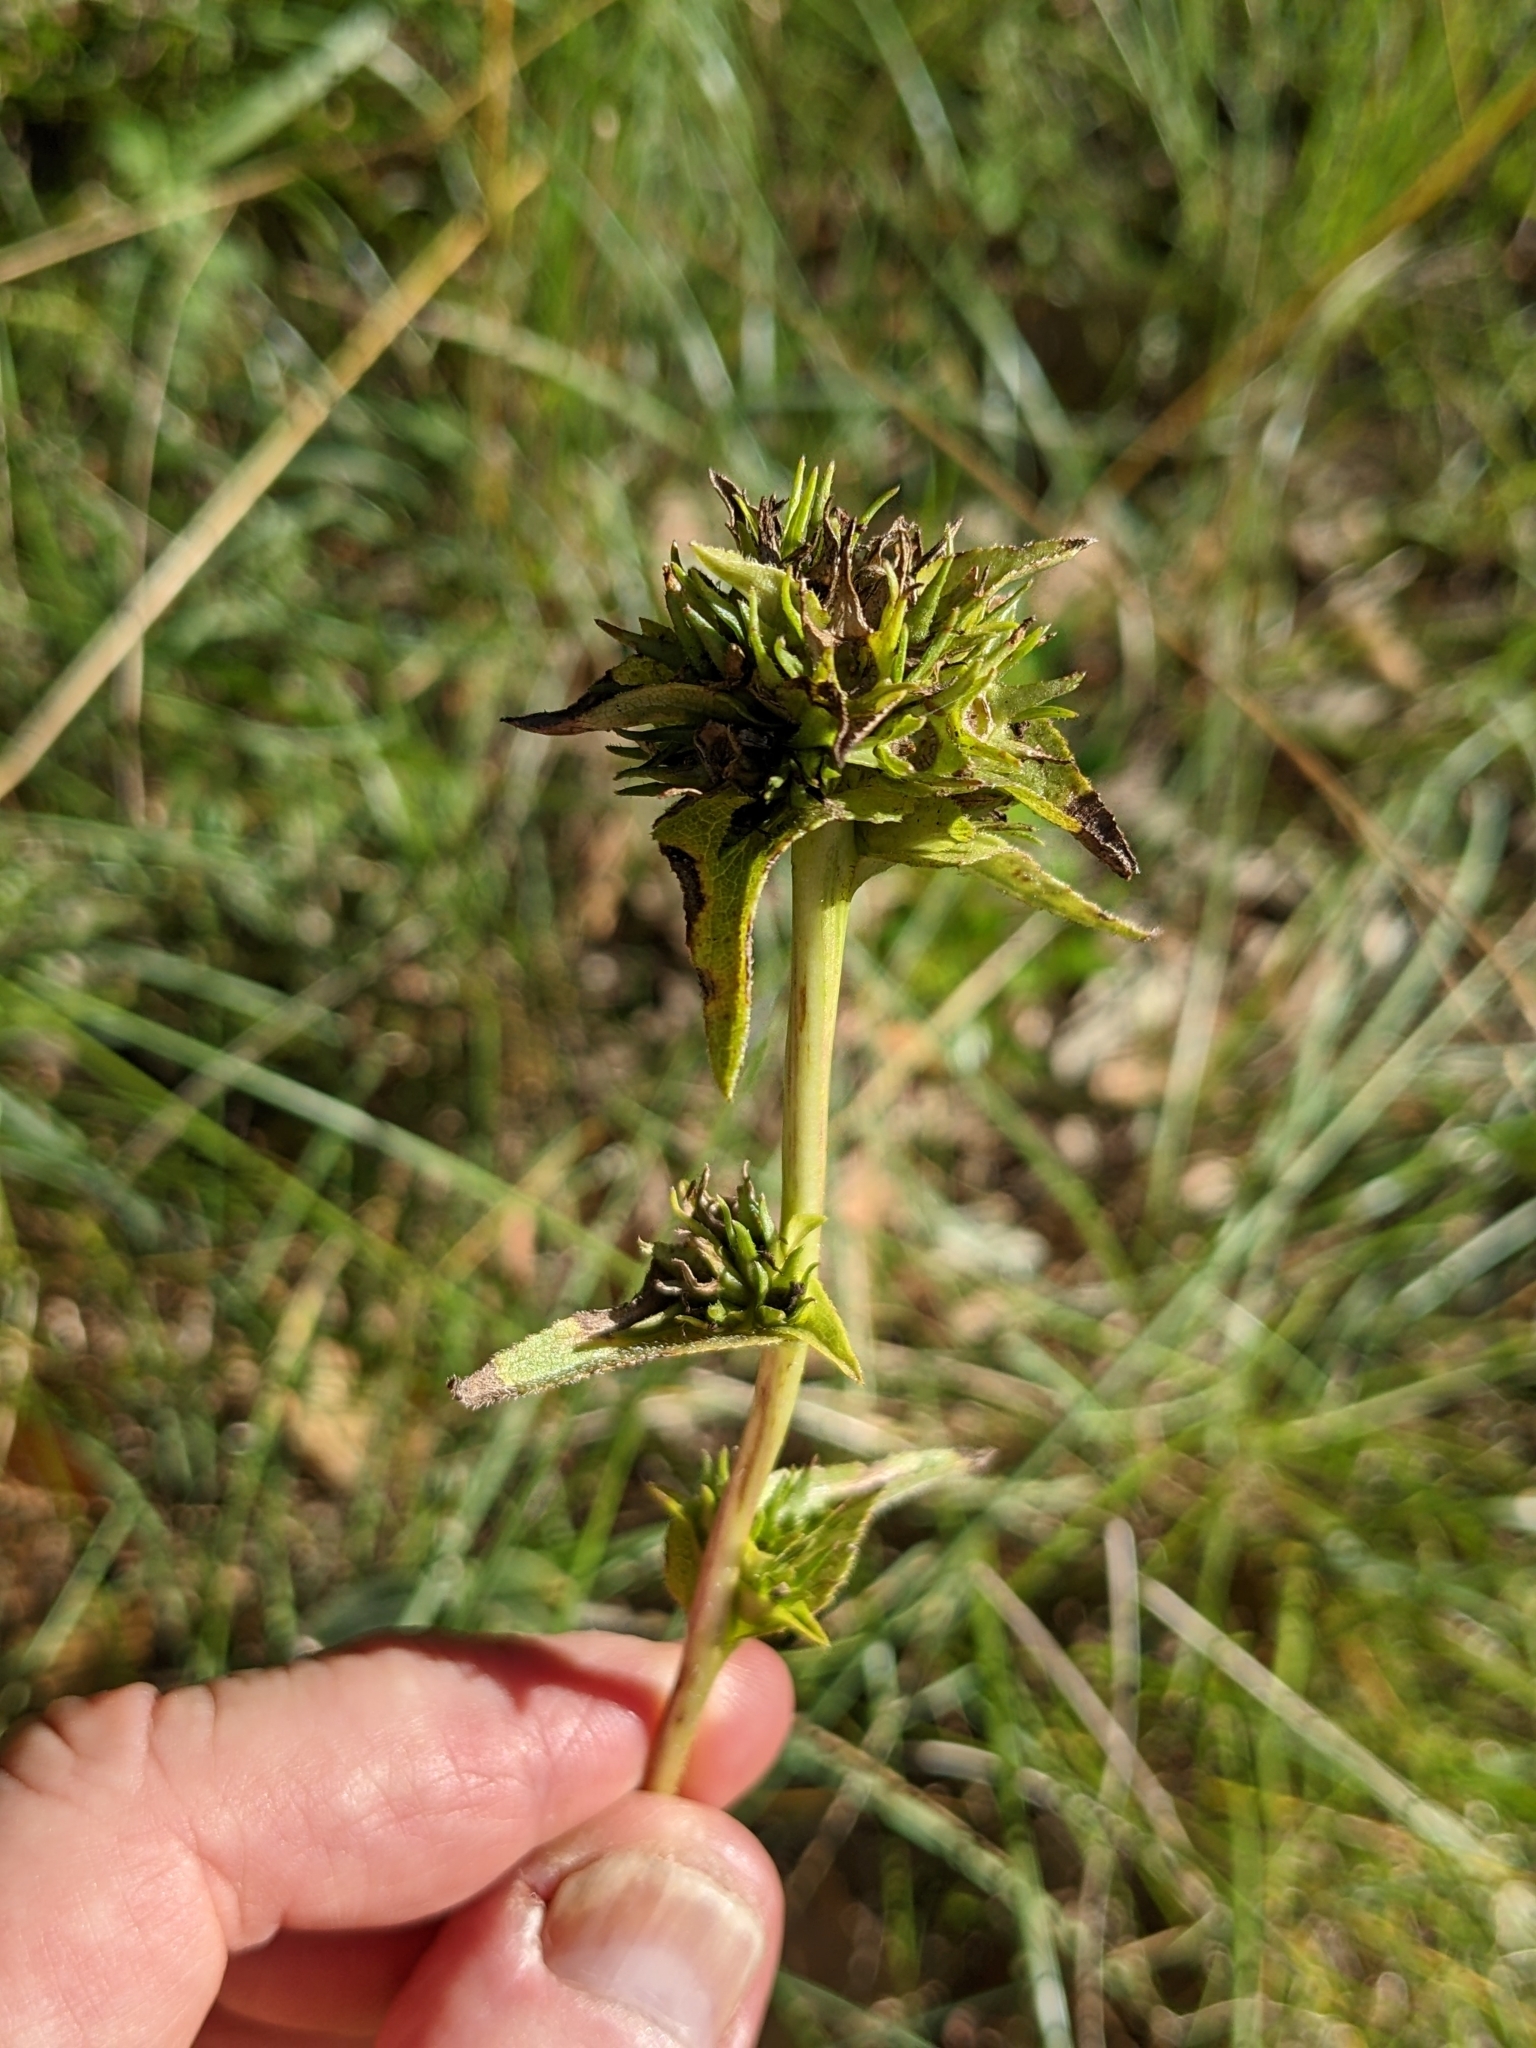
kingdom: Plantae
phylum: Tracheophyta
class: Magnoliopsida
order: Asterales
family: Campanulaceae
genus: Campanula
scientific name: Campanula glomerata
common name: Clustered bellflower
